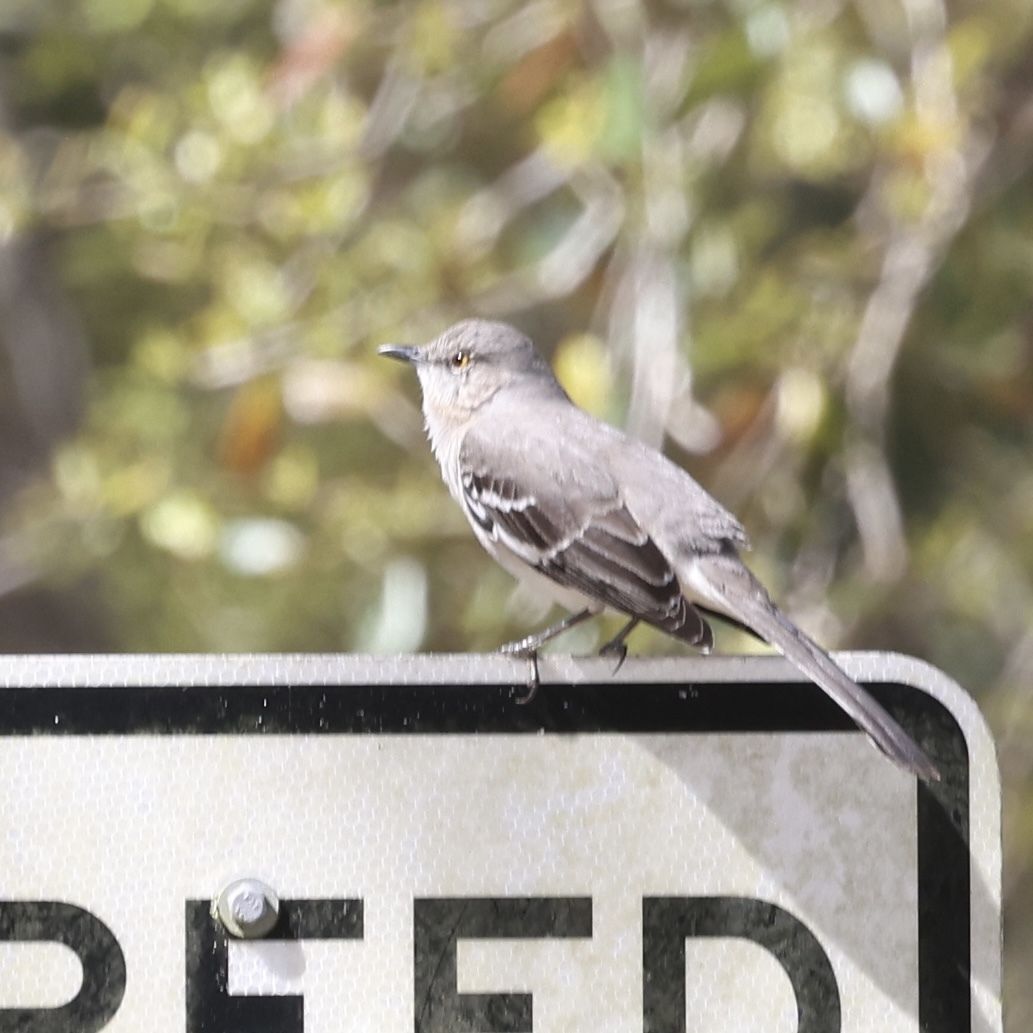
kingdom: Animalia
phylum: Chordata
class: Aves
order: Passeriformes
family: Mimidae
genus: Mimus
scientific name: Mimus polyglottos
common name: Northern mockingbird
